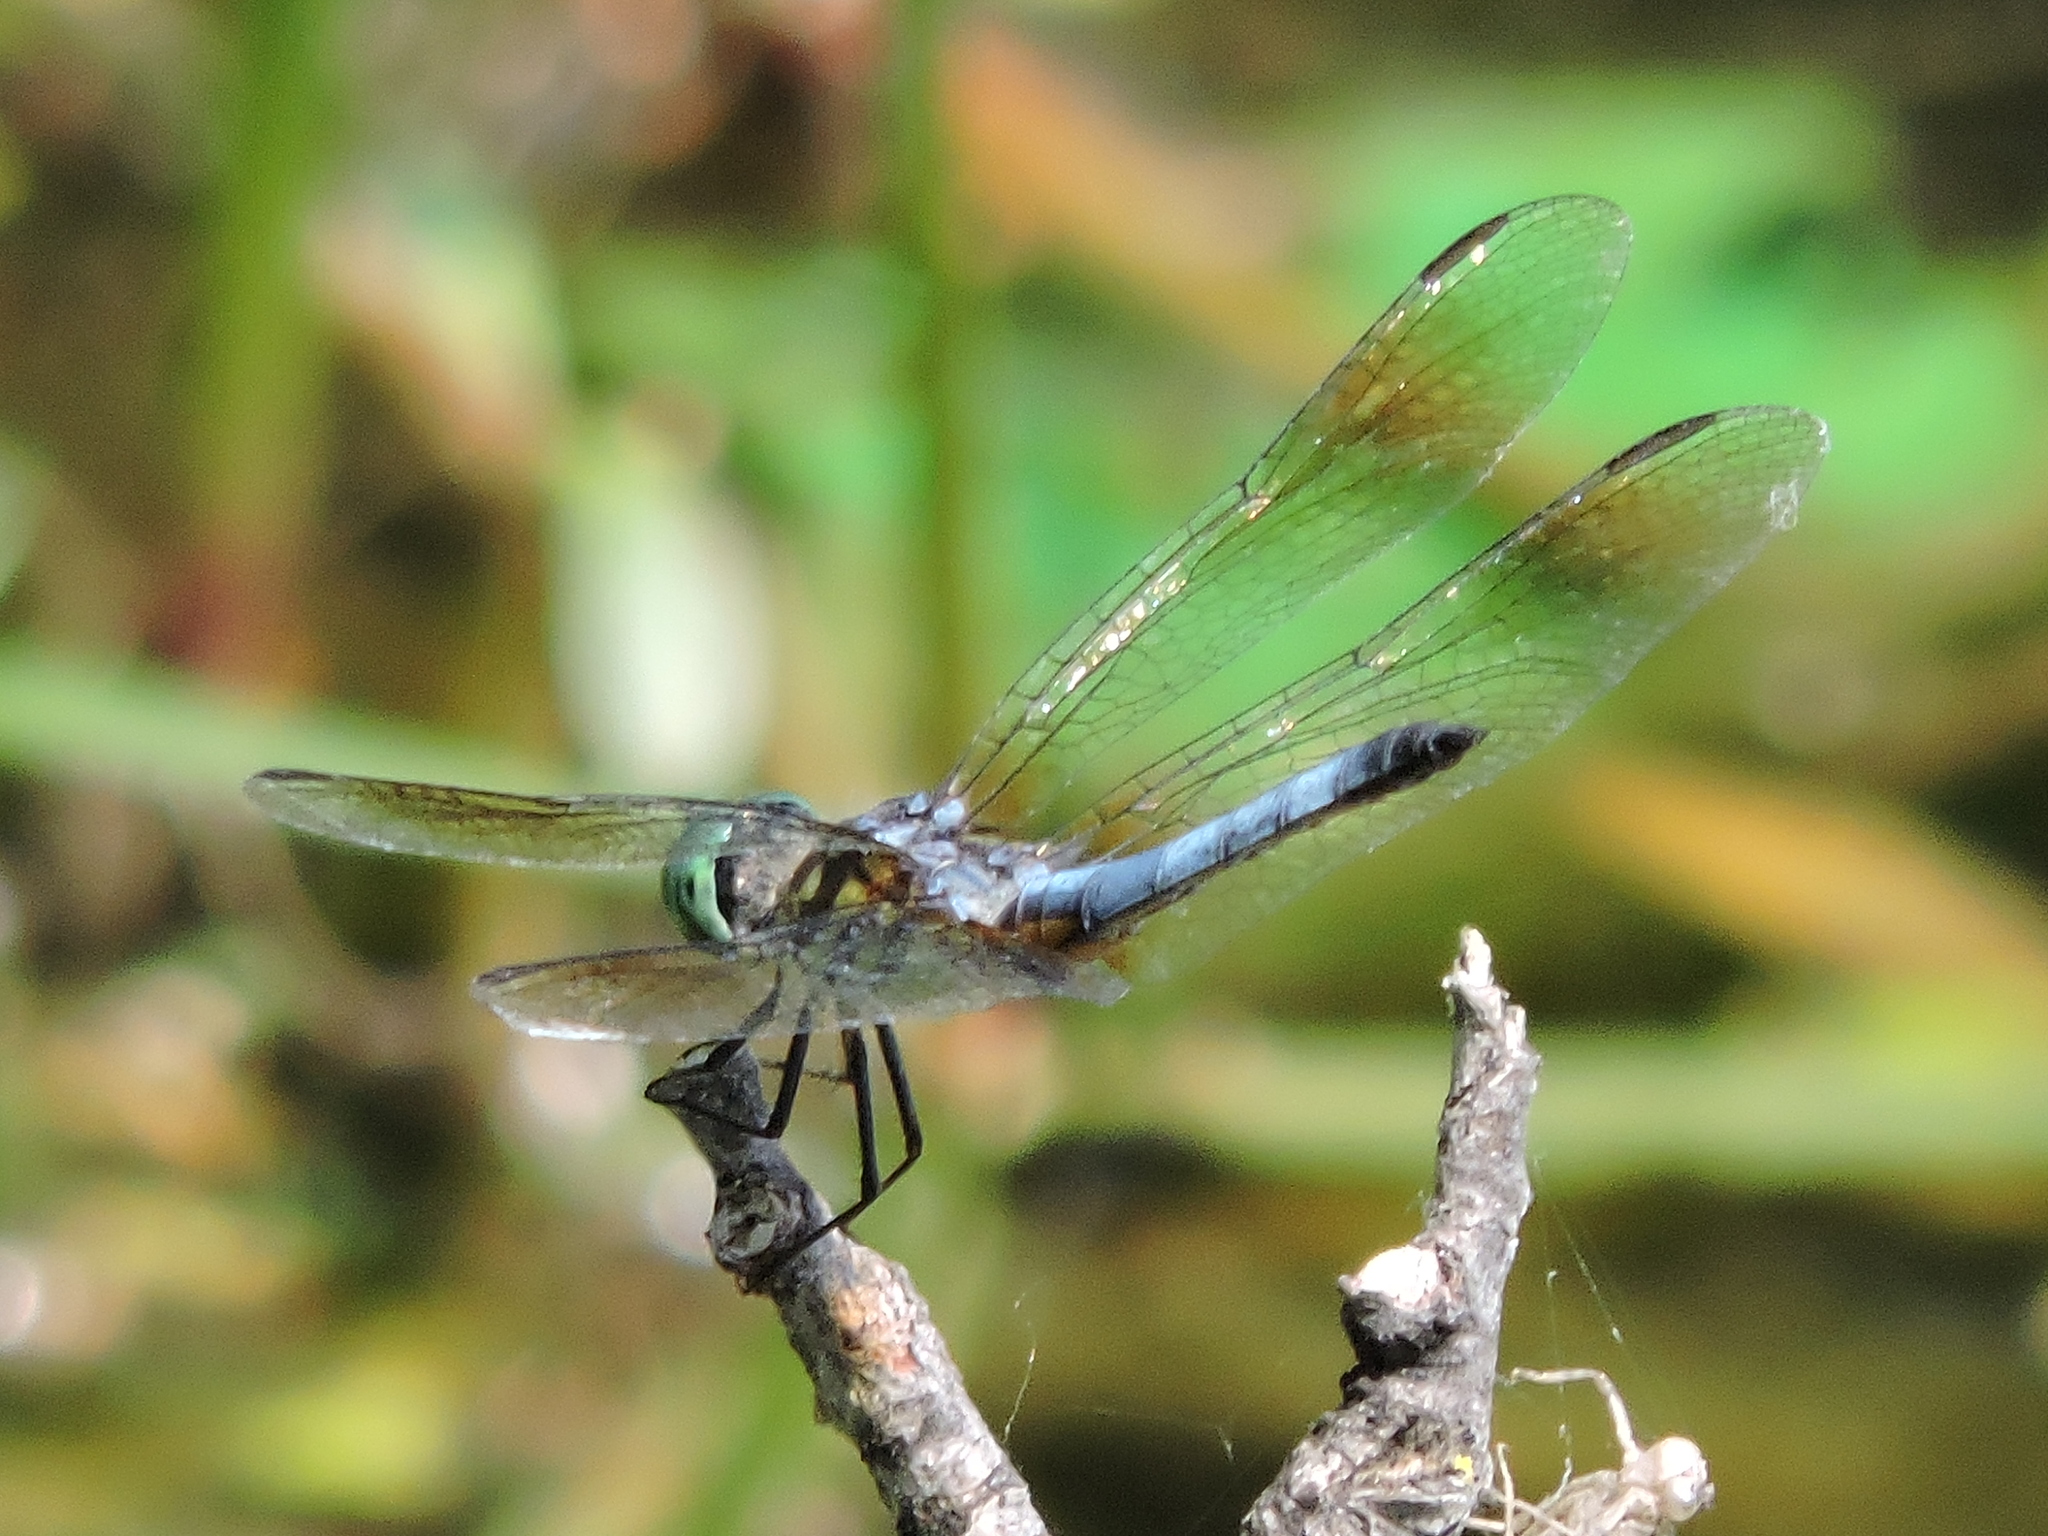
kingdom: Animalia
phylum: Arthropoda
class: Insecta
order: Odonata
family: Libellulidae
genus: Pachydiplax
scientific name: Pachydiplax longipennis
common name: Blue dasher
